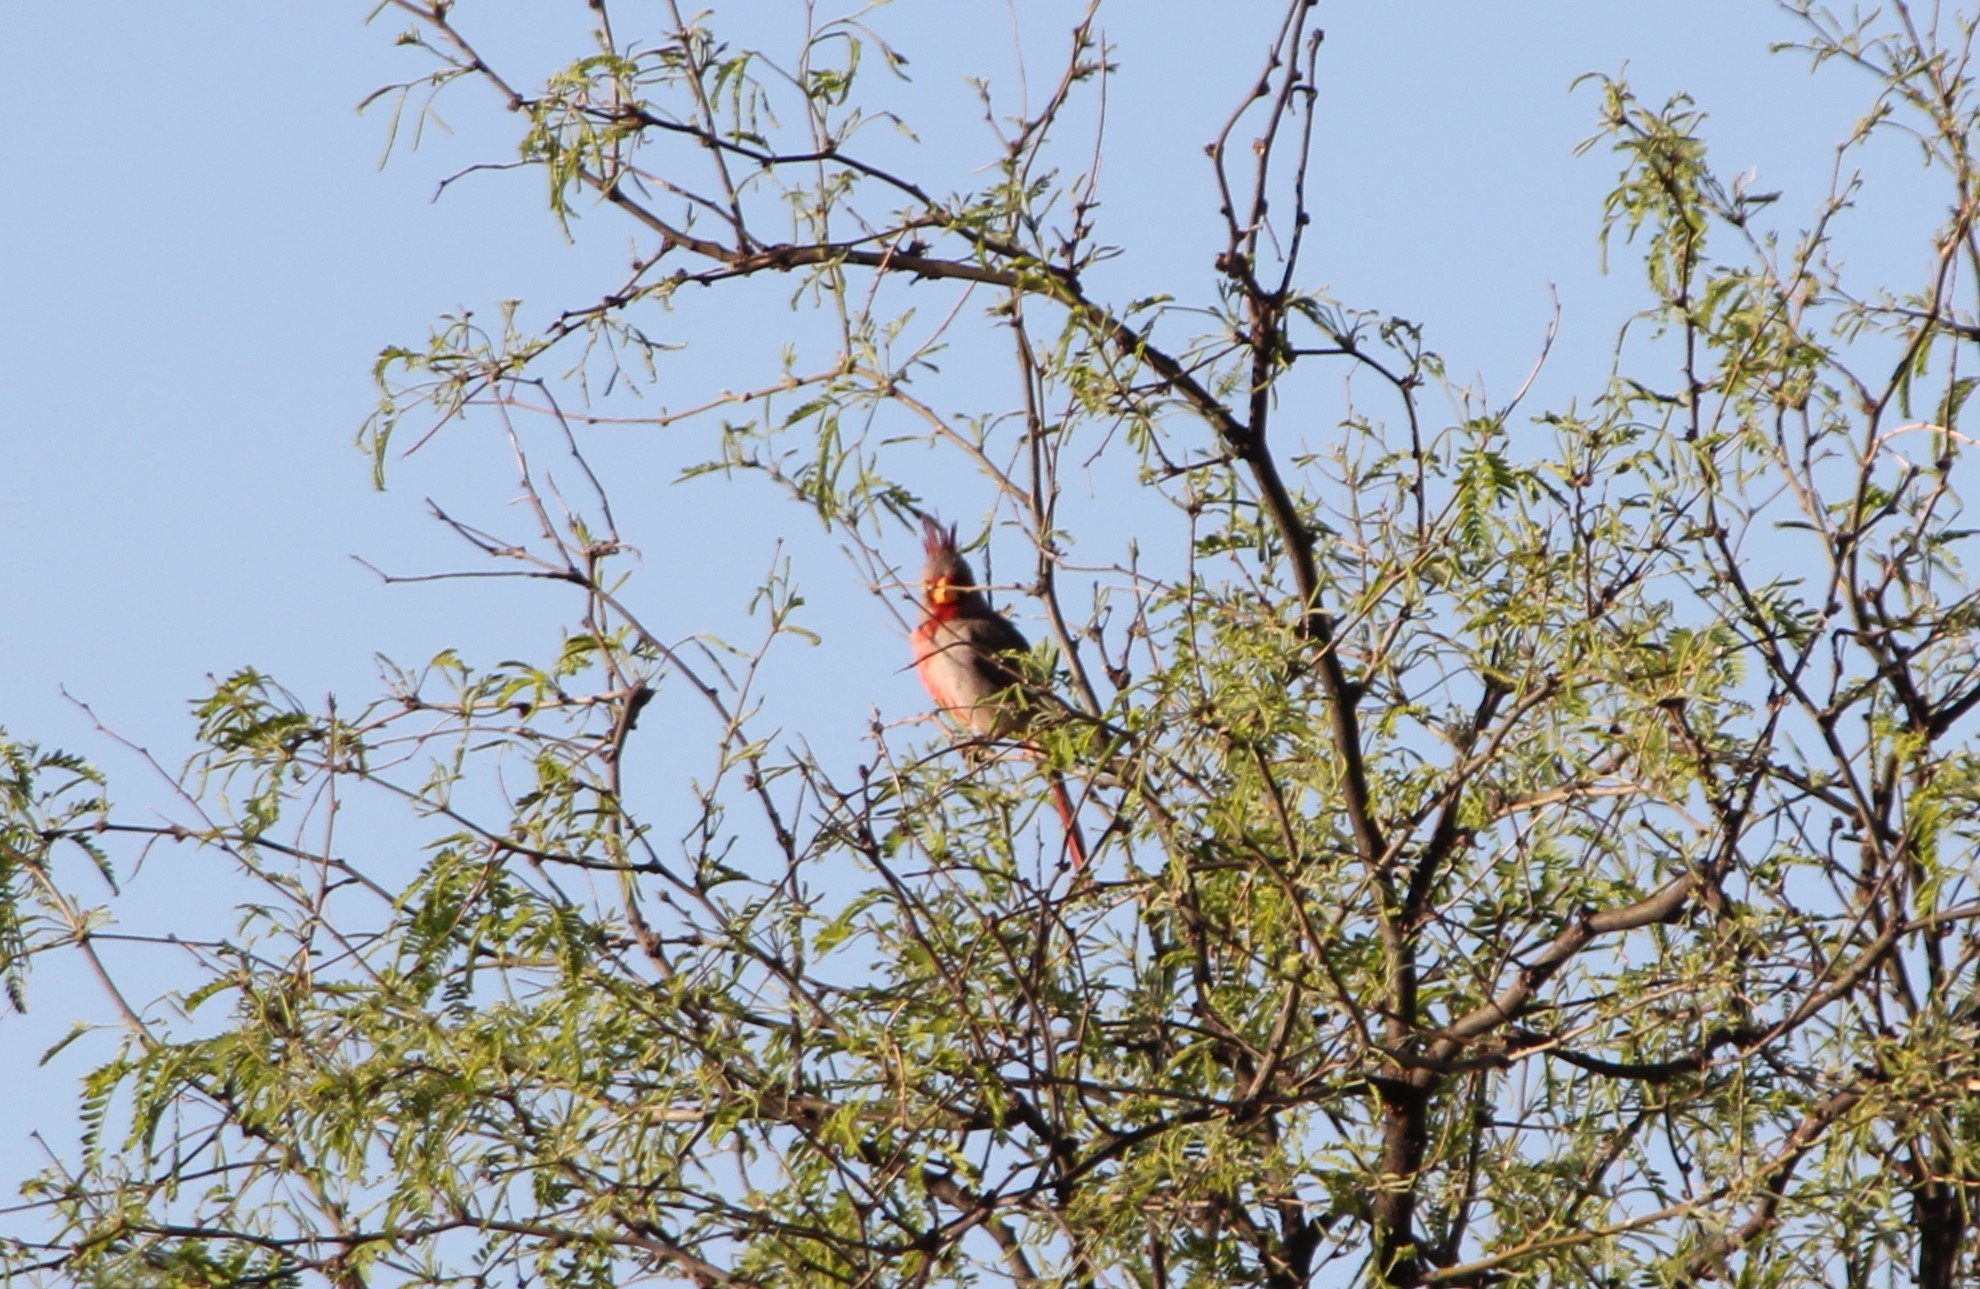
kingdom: Animalia
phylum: Chordata
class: Aves
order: Passeriformes
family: Cardinalidae
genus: Cardinalis
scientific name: Cardinalis sinuatus
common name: Pyrrhuloxia
